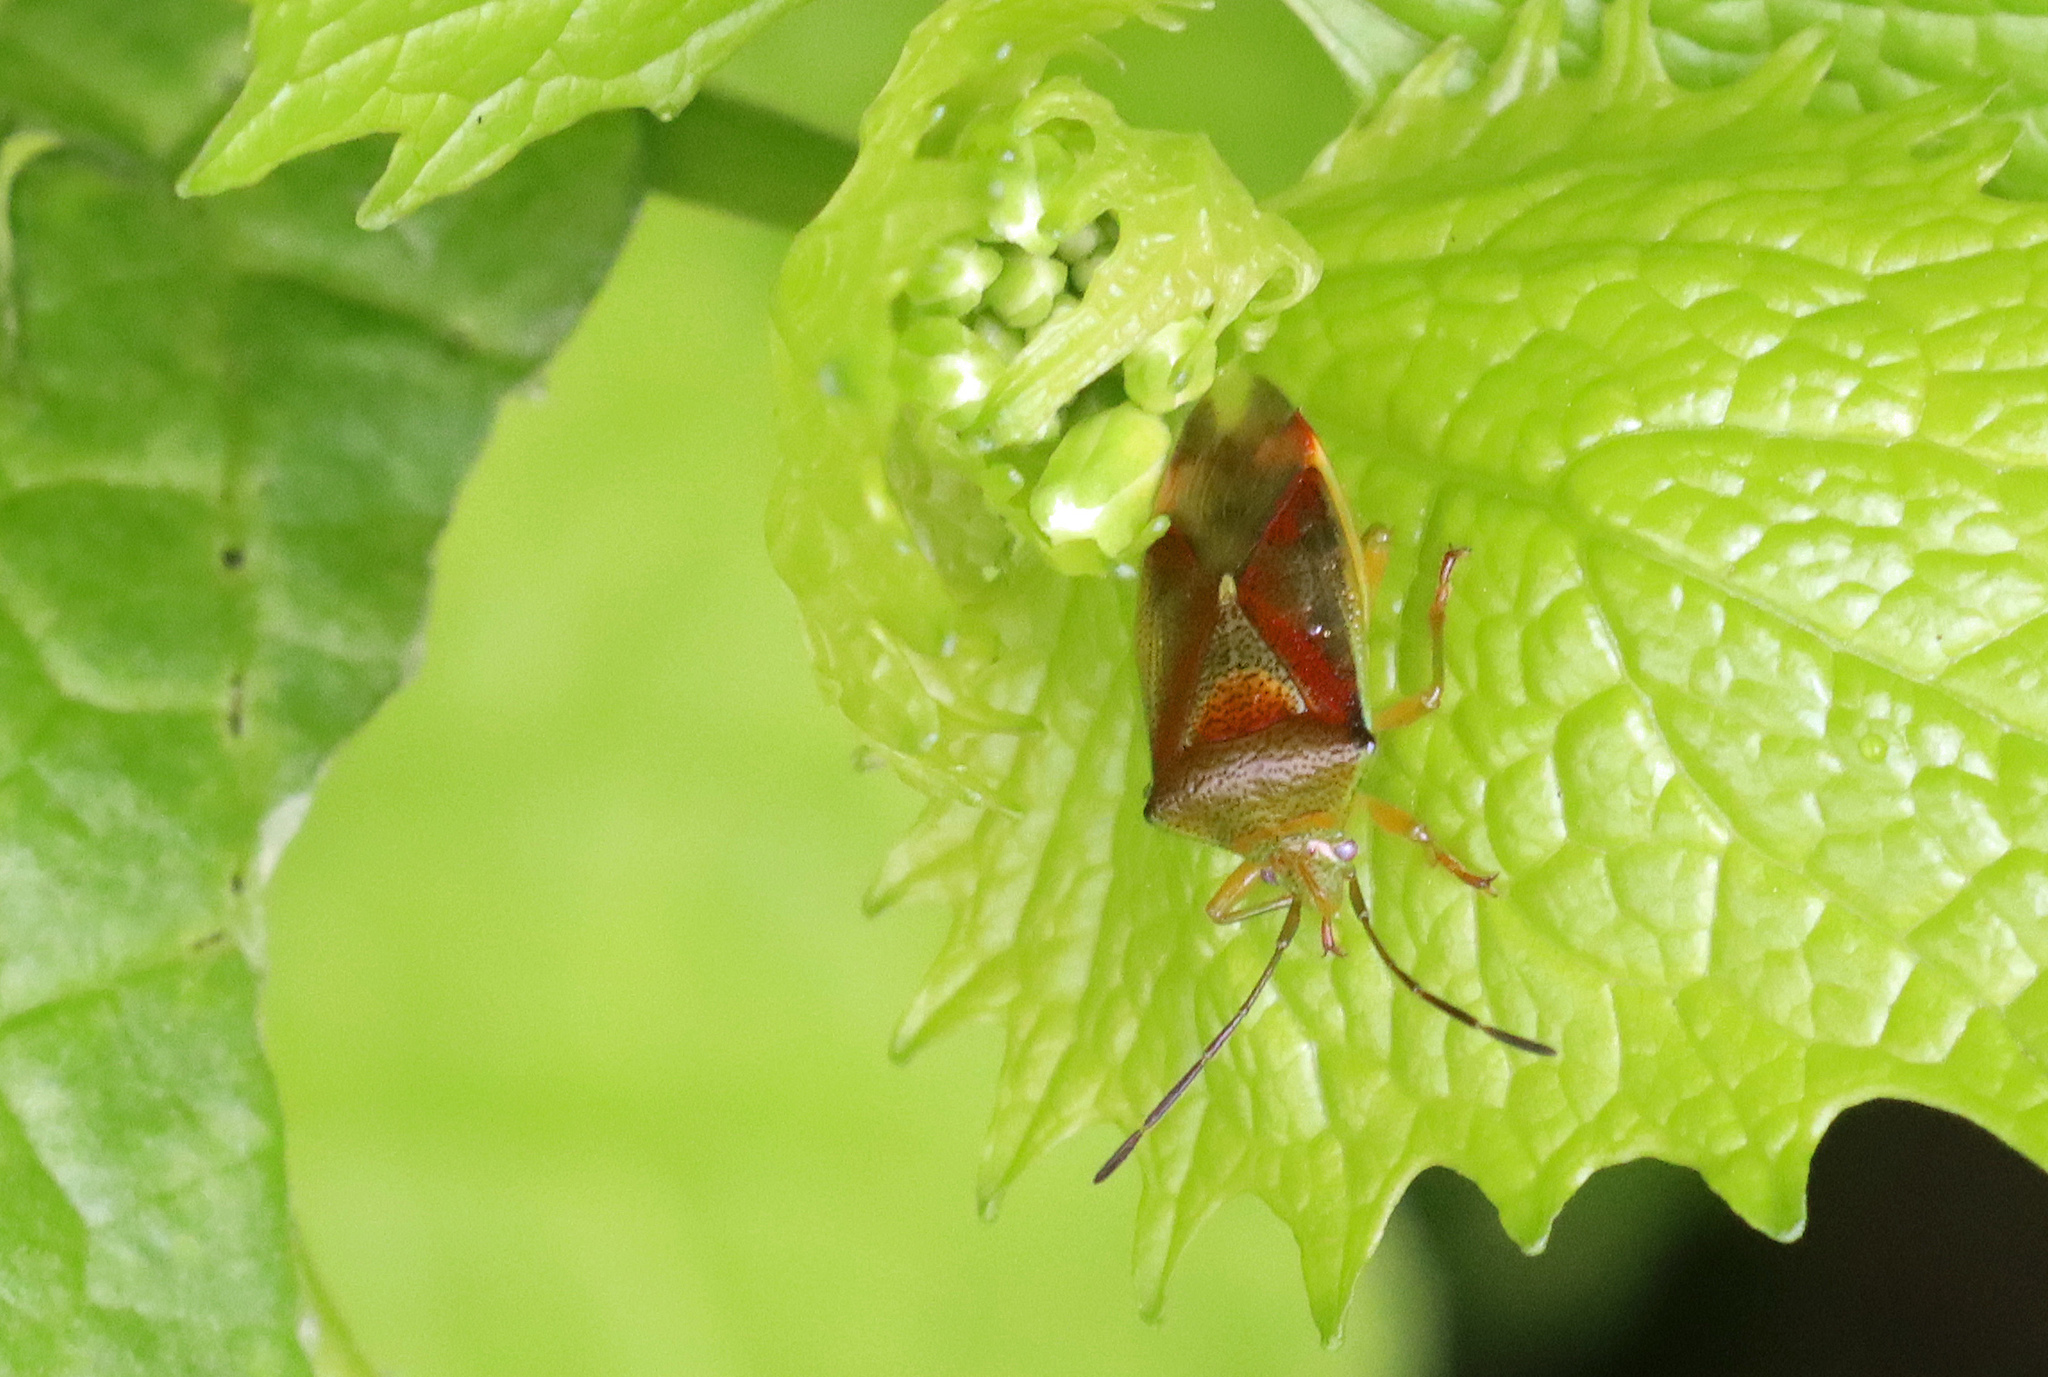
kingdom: Animalia
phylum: Arthropoda
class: Insecta
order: Hemiptera
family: Acanthosomatidae
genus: Elasmostethus
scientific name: Elasmostethus interstinctus
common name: Birch shieldbug
